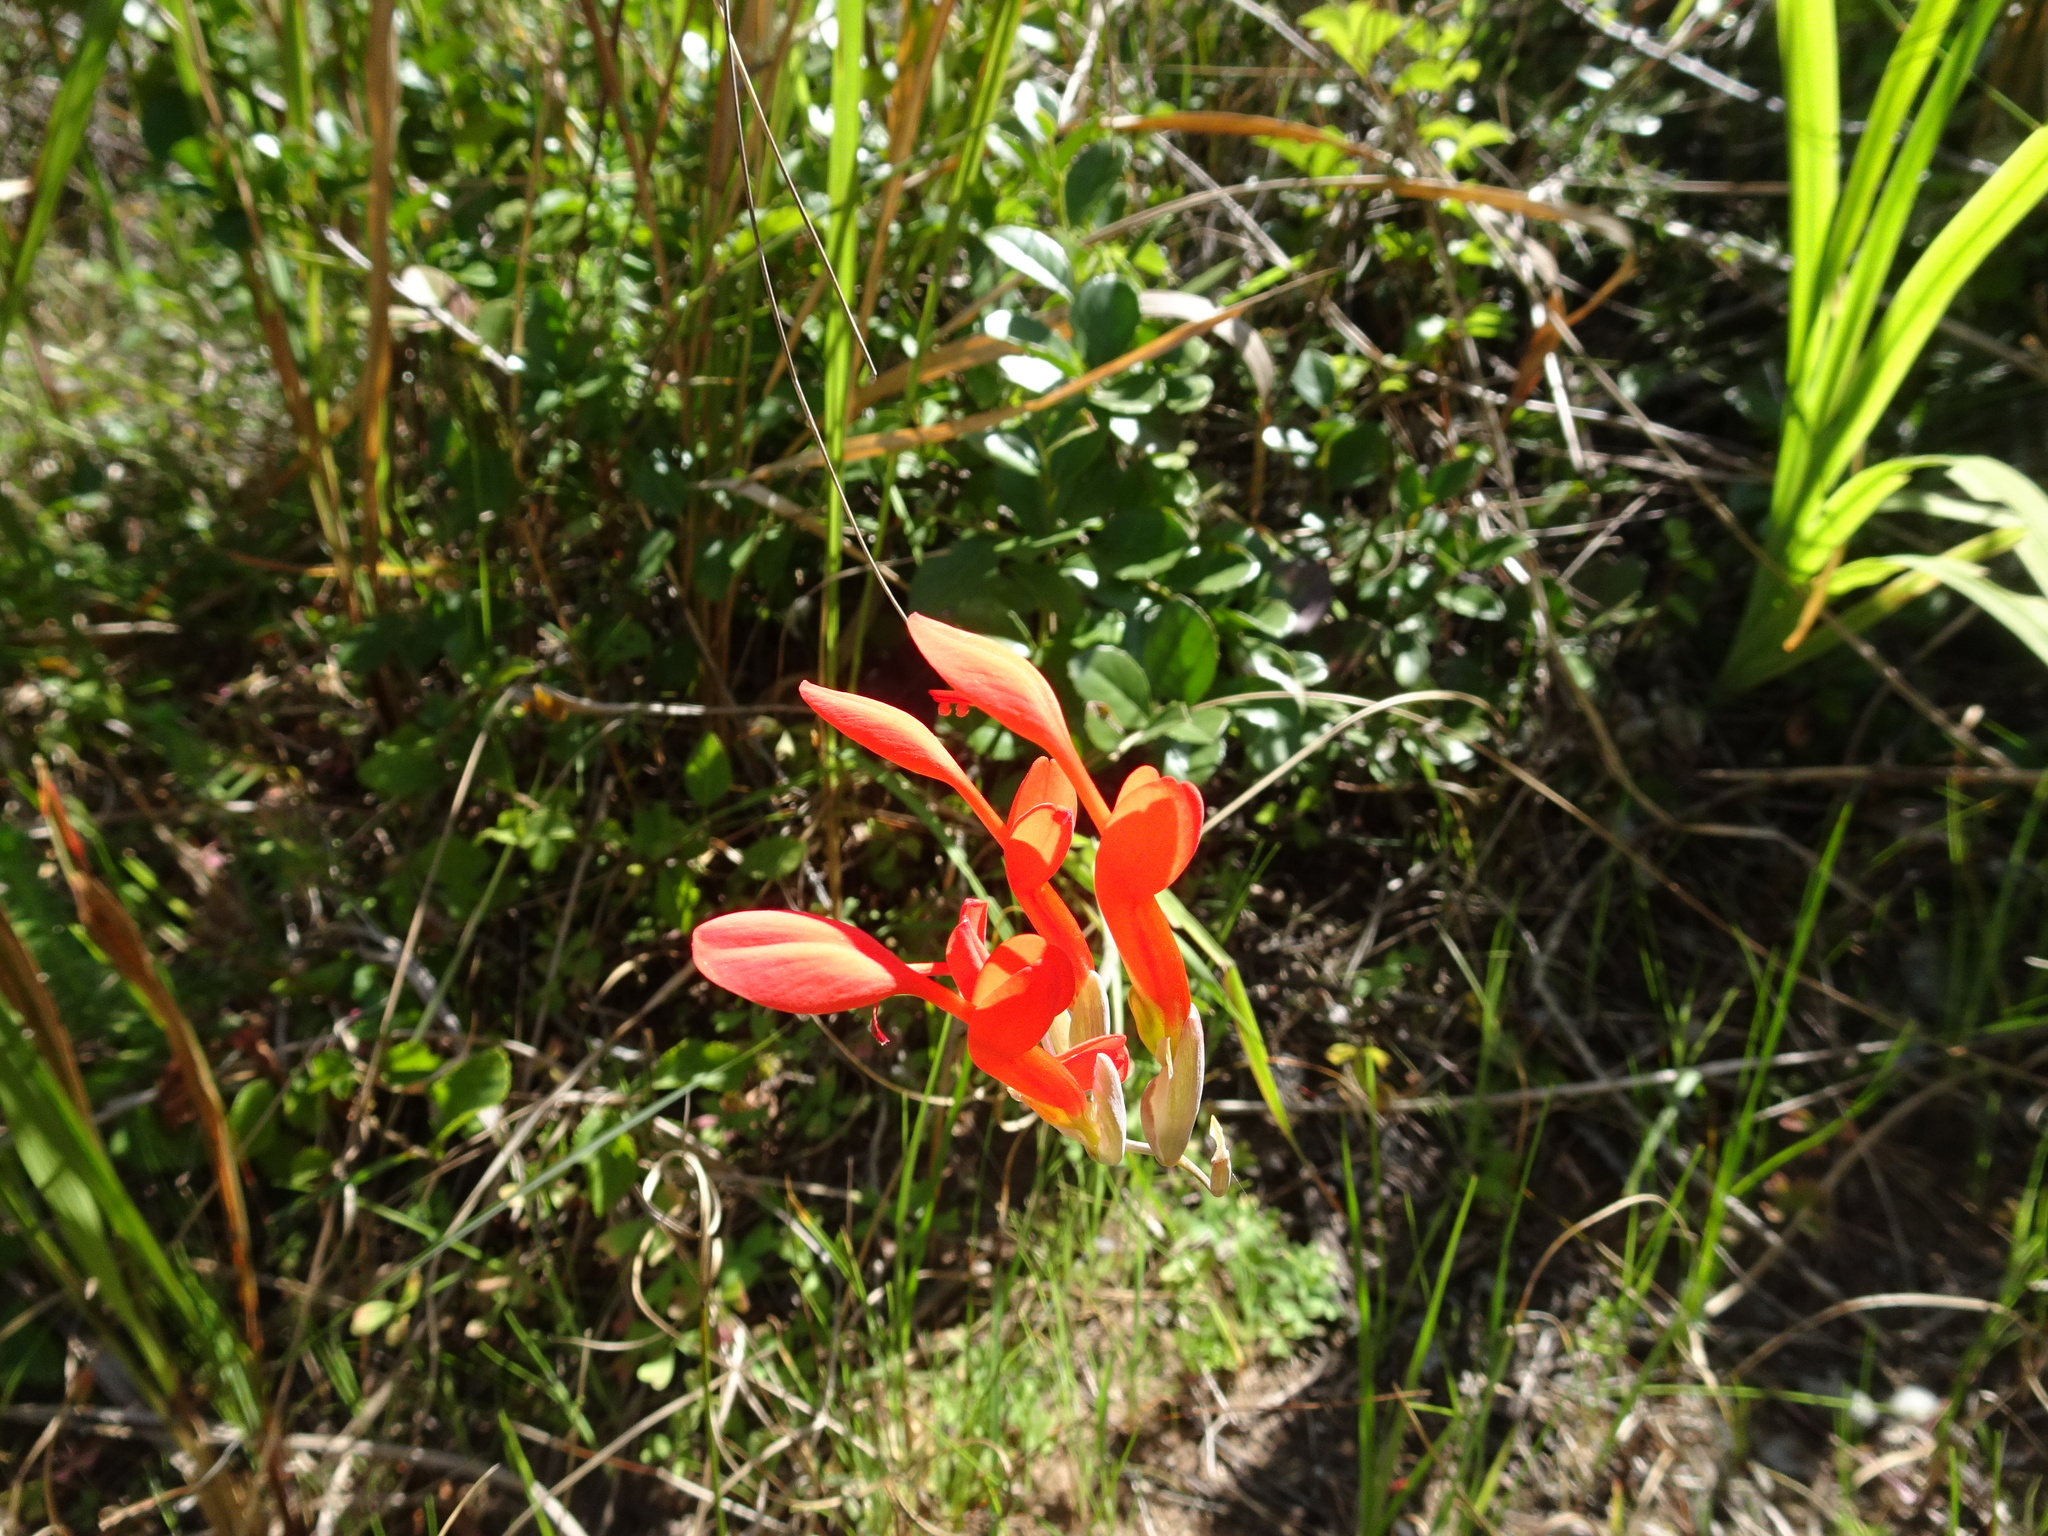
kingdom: Plantae
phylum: Tracheophyta
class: Liliopsida
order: Asparagales
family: Iridaceae
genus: Gladiolus
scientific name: Gladiolus cunonius
